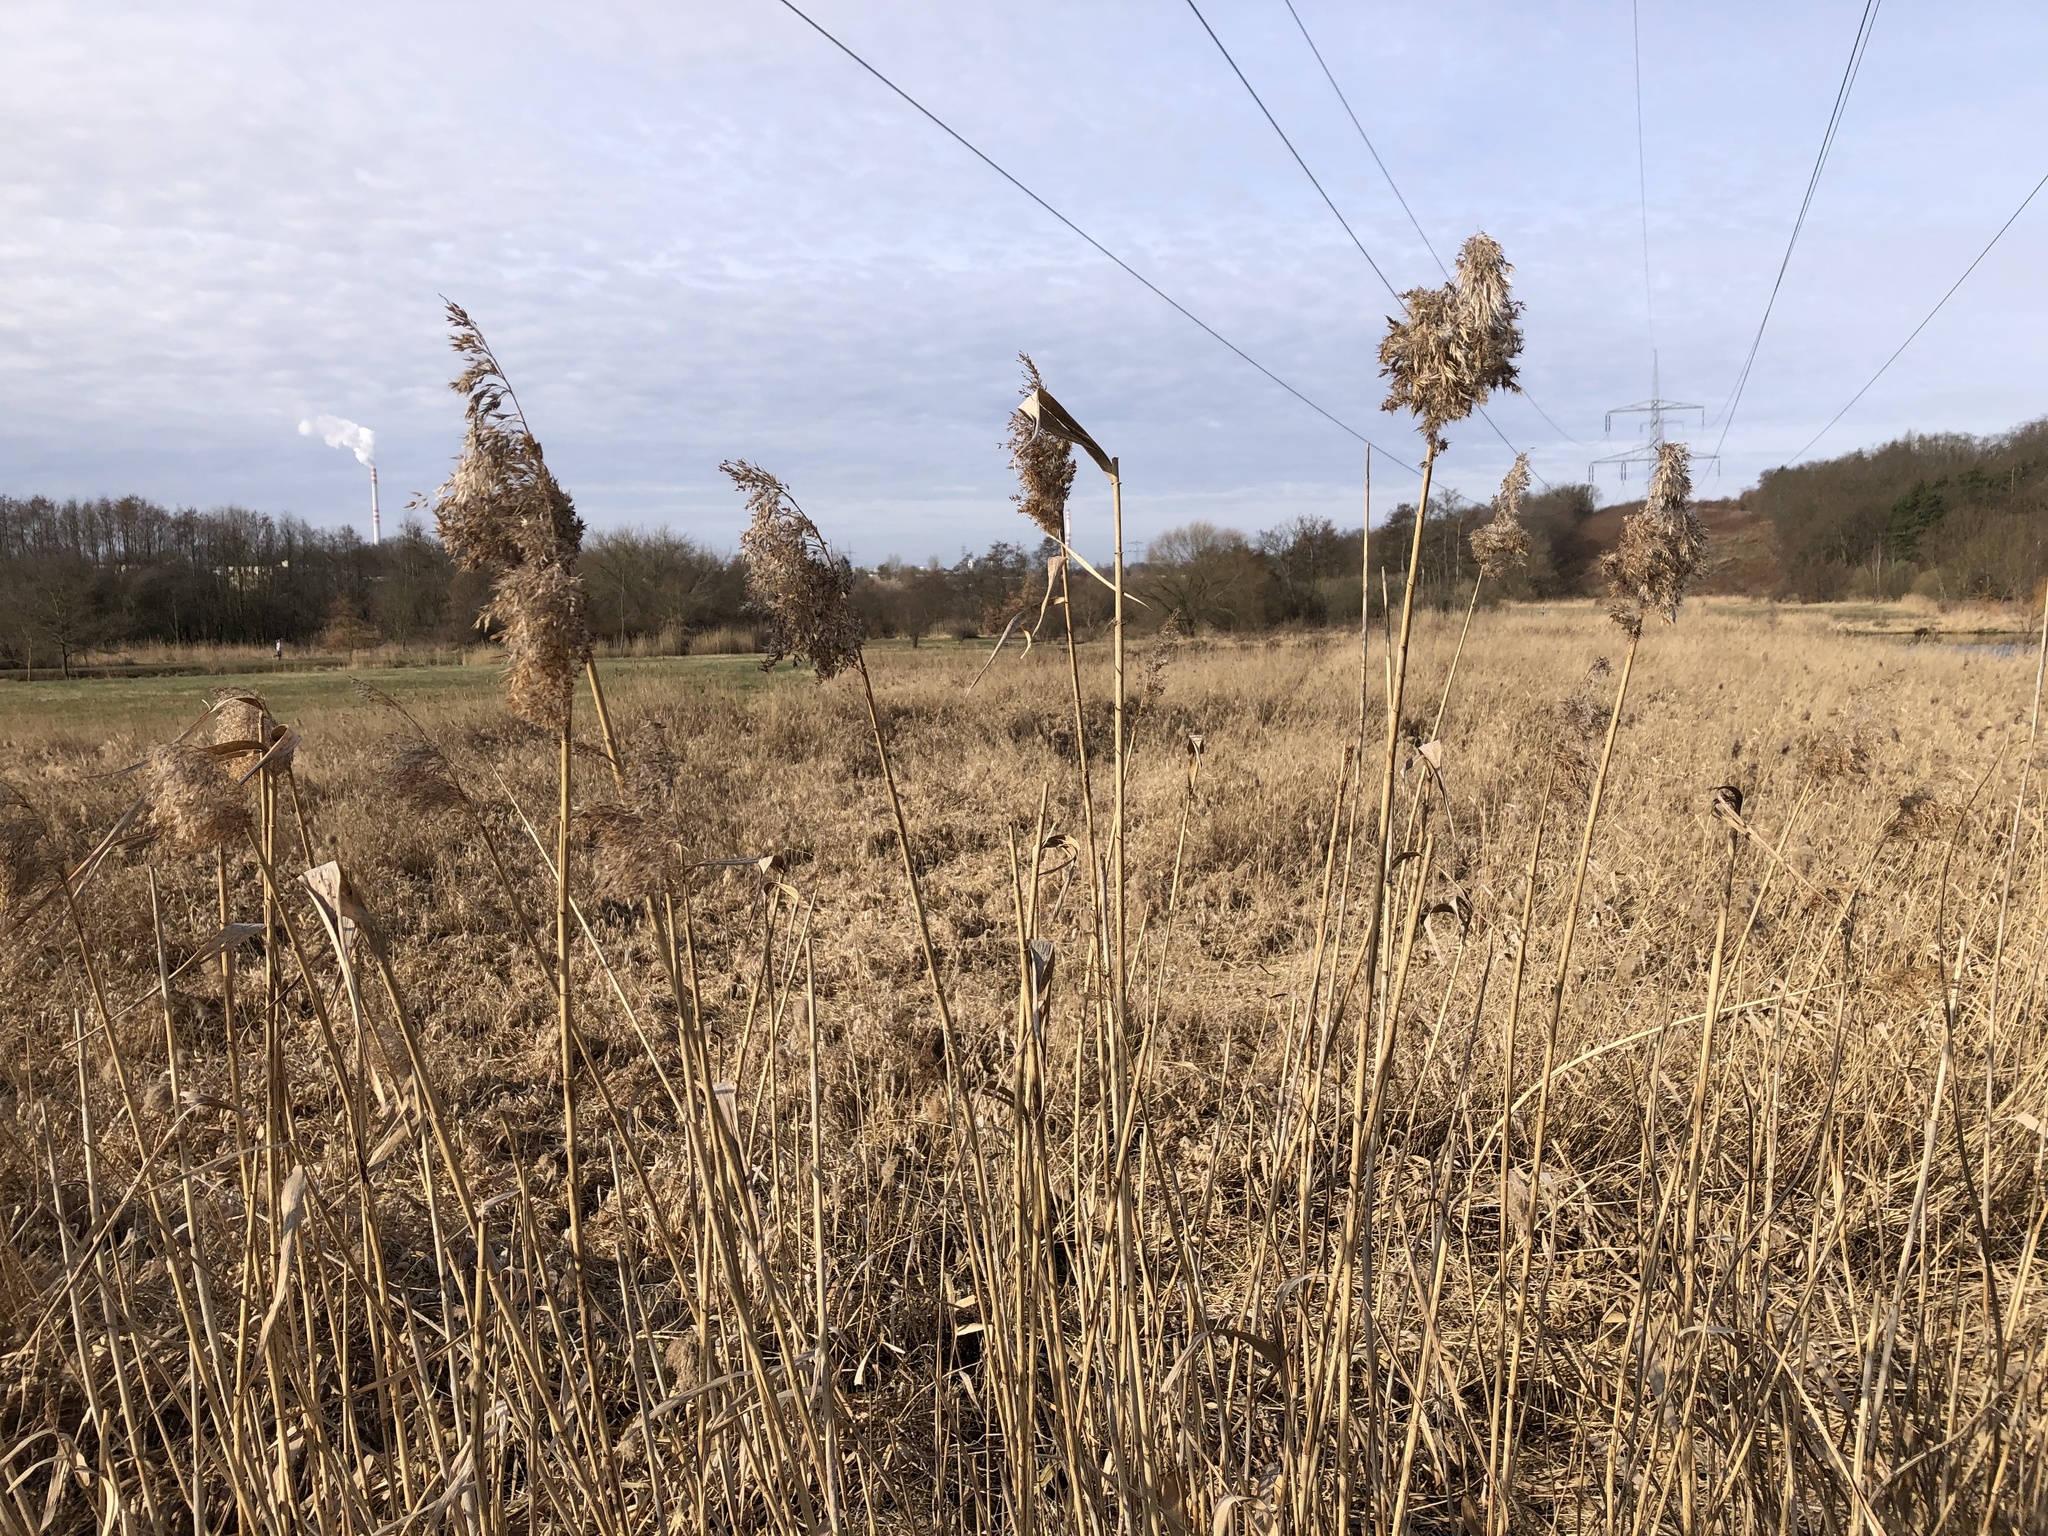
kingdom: Plantae
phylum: Tracheophyta
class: Liliopsida
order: Poales
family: Poaceae
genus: Phragmites
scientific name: Phragmites australis
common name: Common reed
